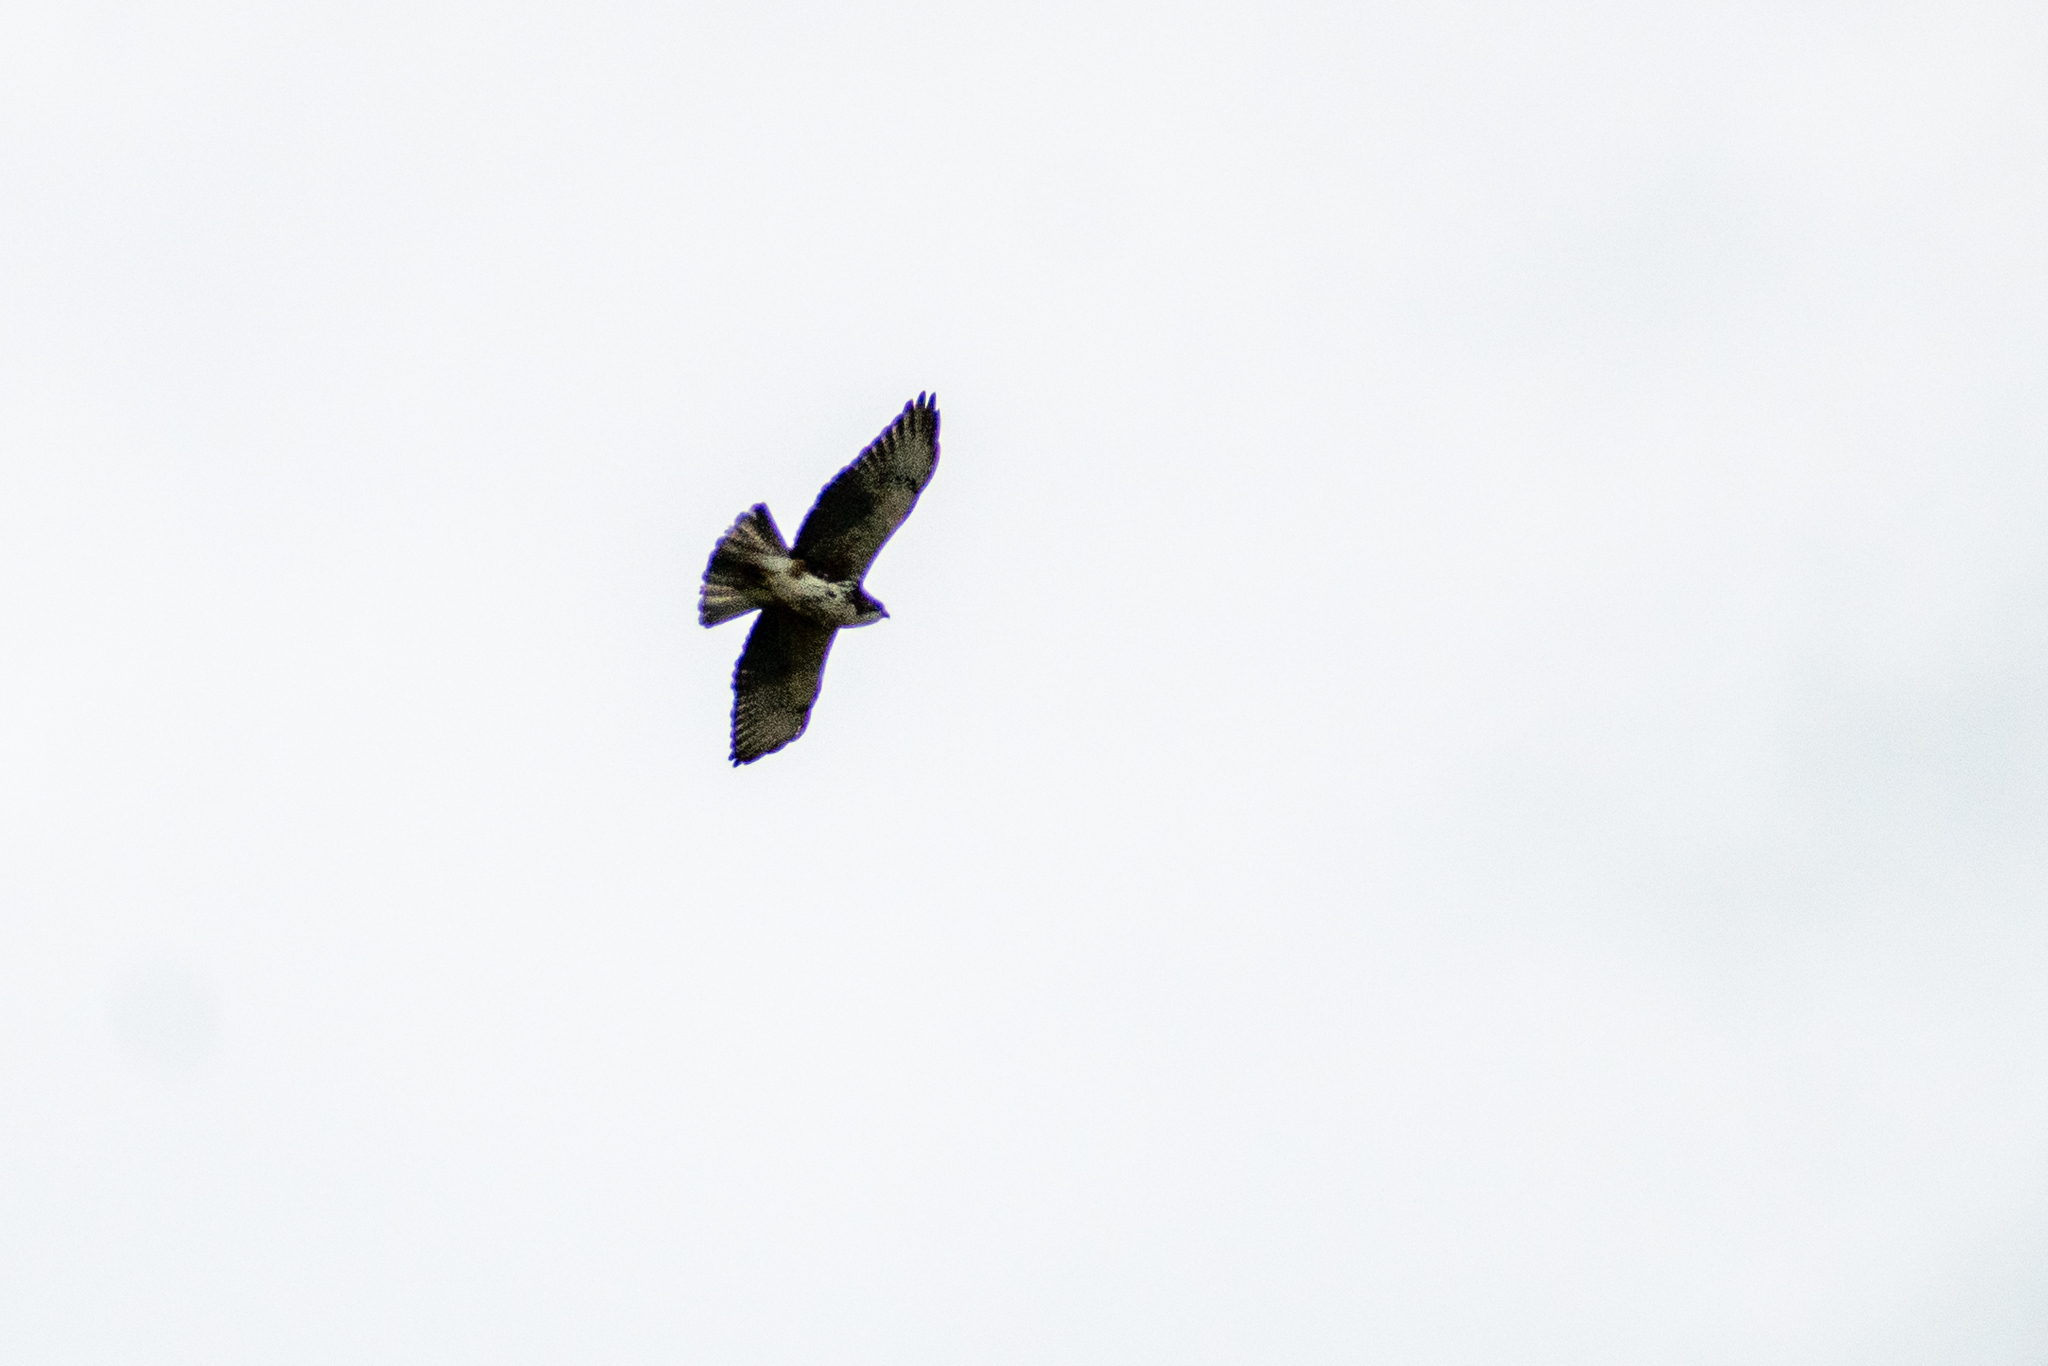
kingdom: Animalia
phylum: Chordata
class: Aves
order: Accipitriformes
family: Accipitridae
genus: Buteo
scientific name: Buteo albigula
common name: White-throated hawk
